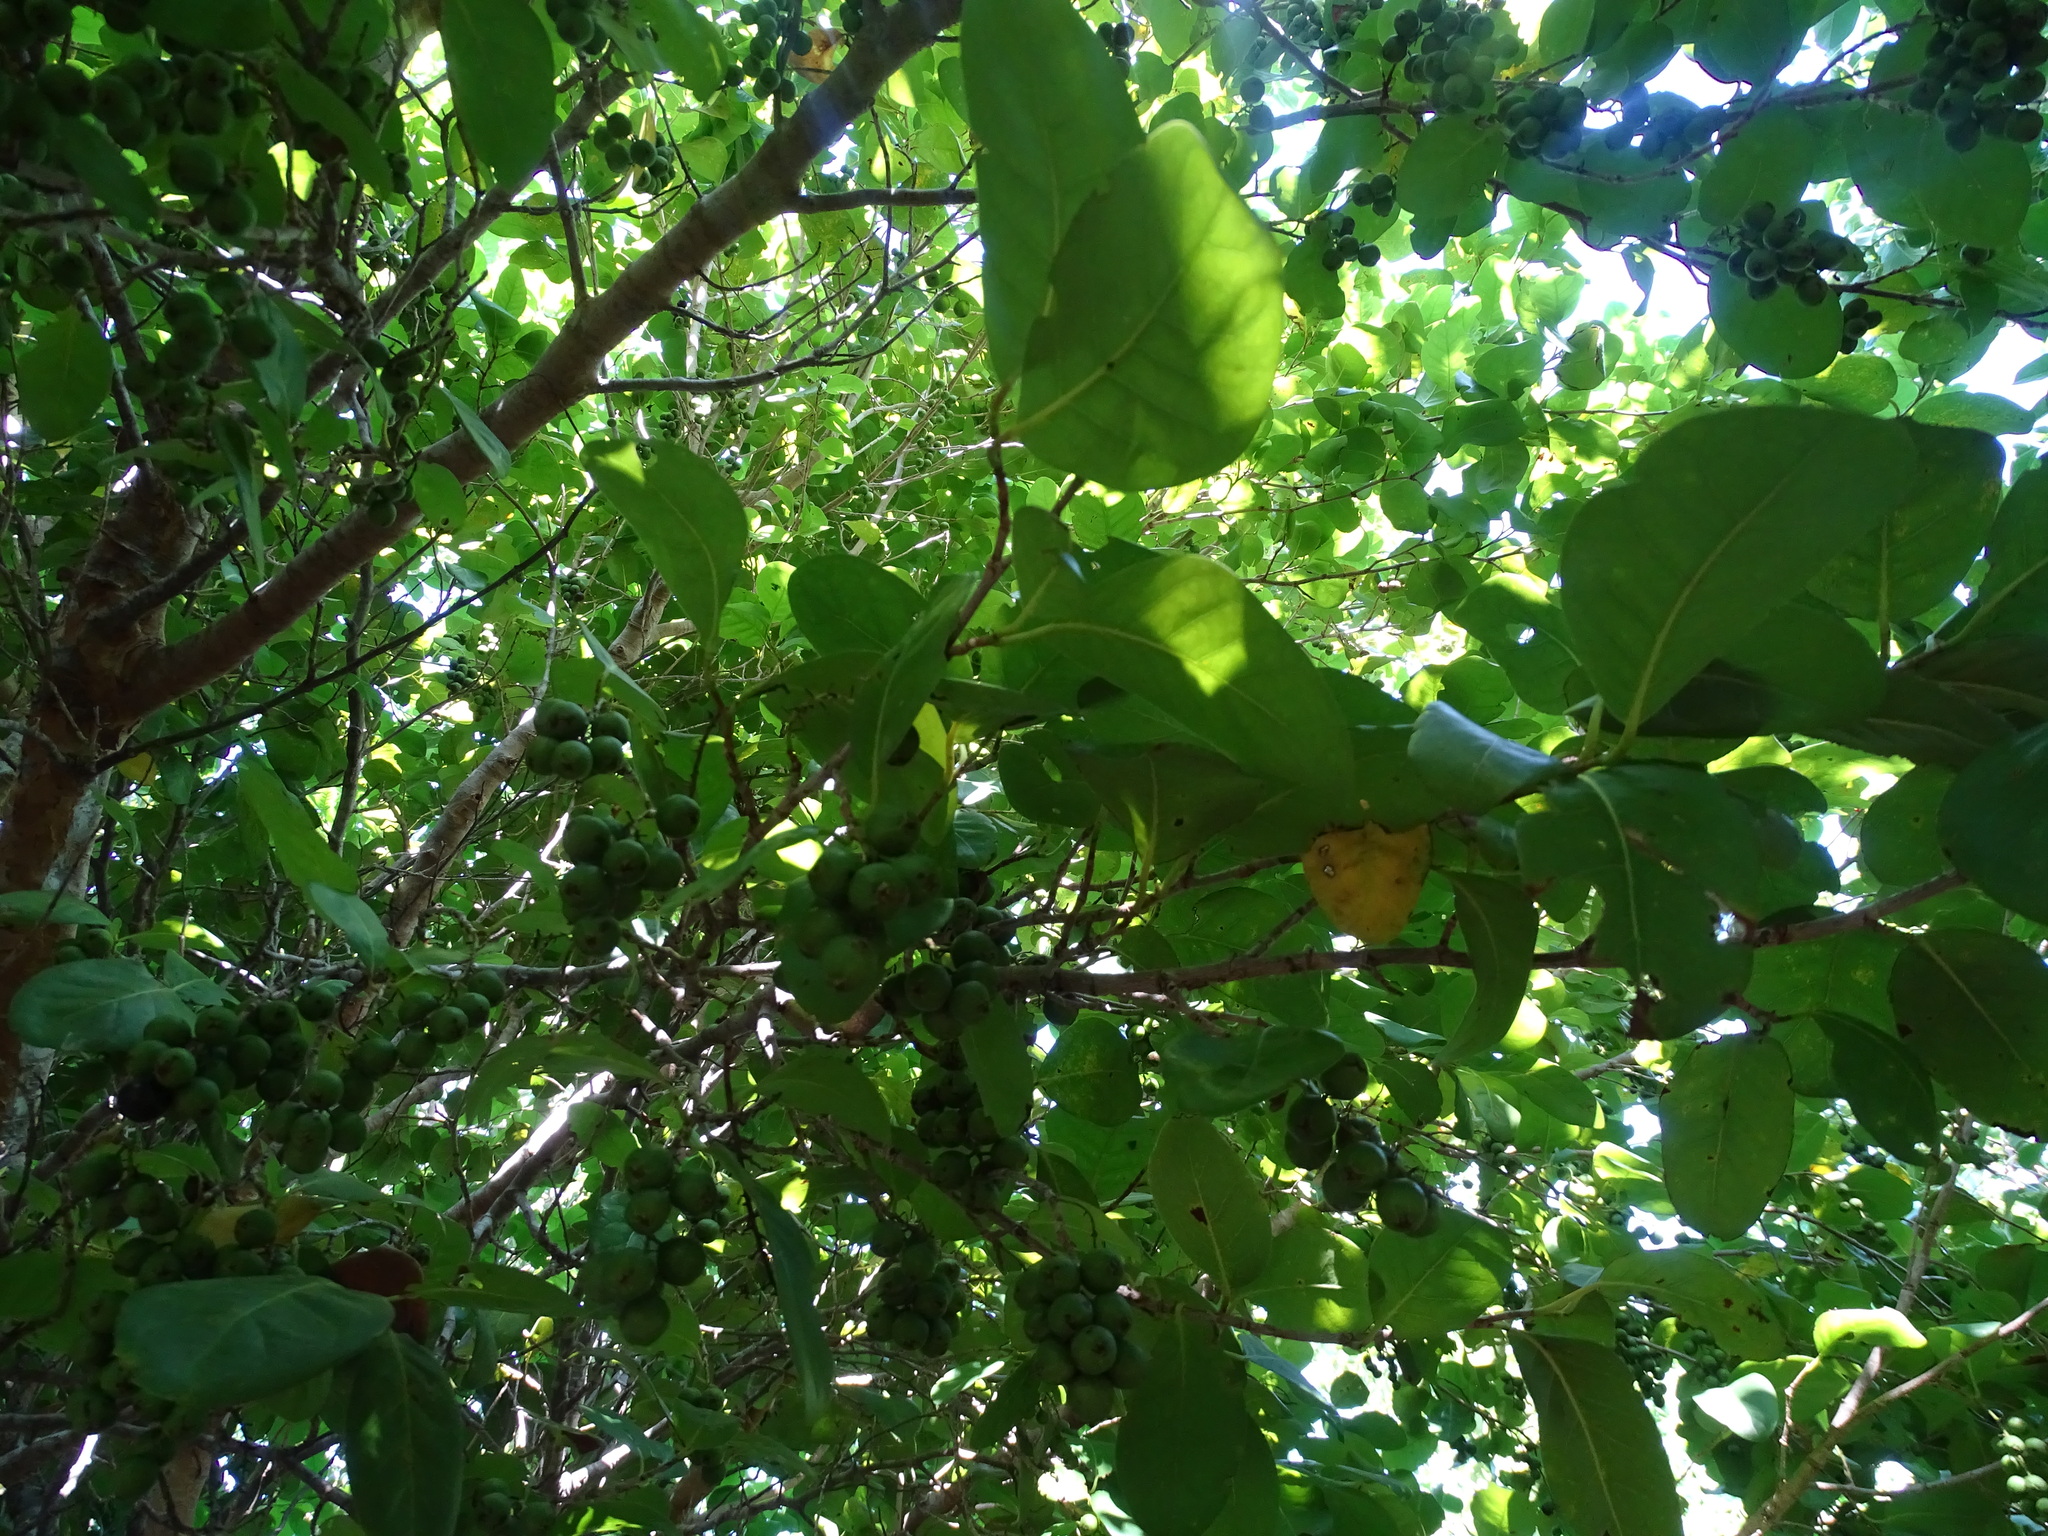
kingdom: Plantae
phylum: Tracheophyta
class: Magnoliopsida
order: Caryophyllales
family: Polygonaceae
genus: Coccoloba
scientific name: Coccoloba diversifolia
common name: Pigeon-plum
